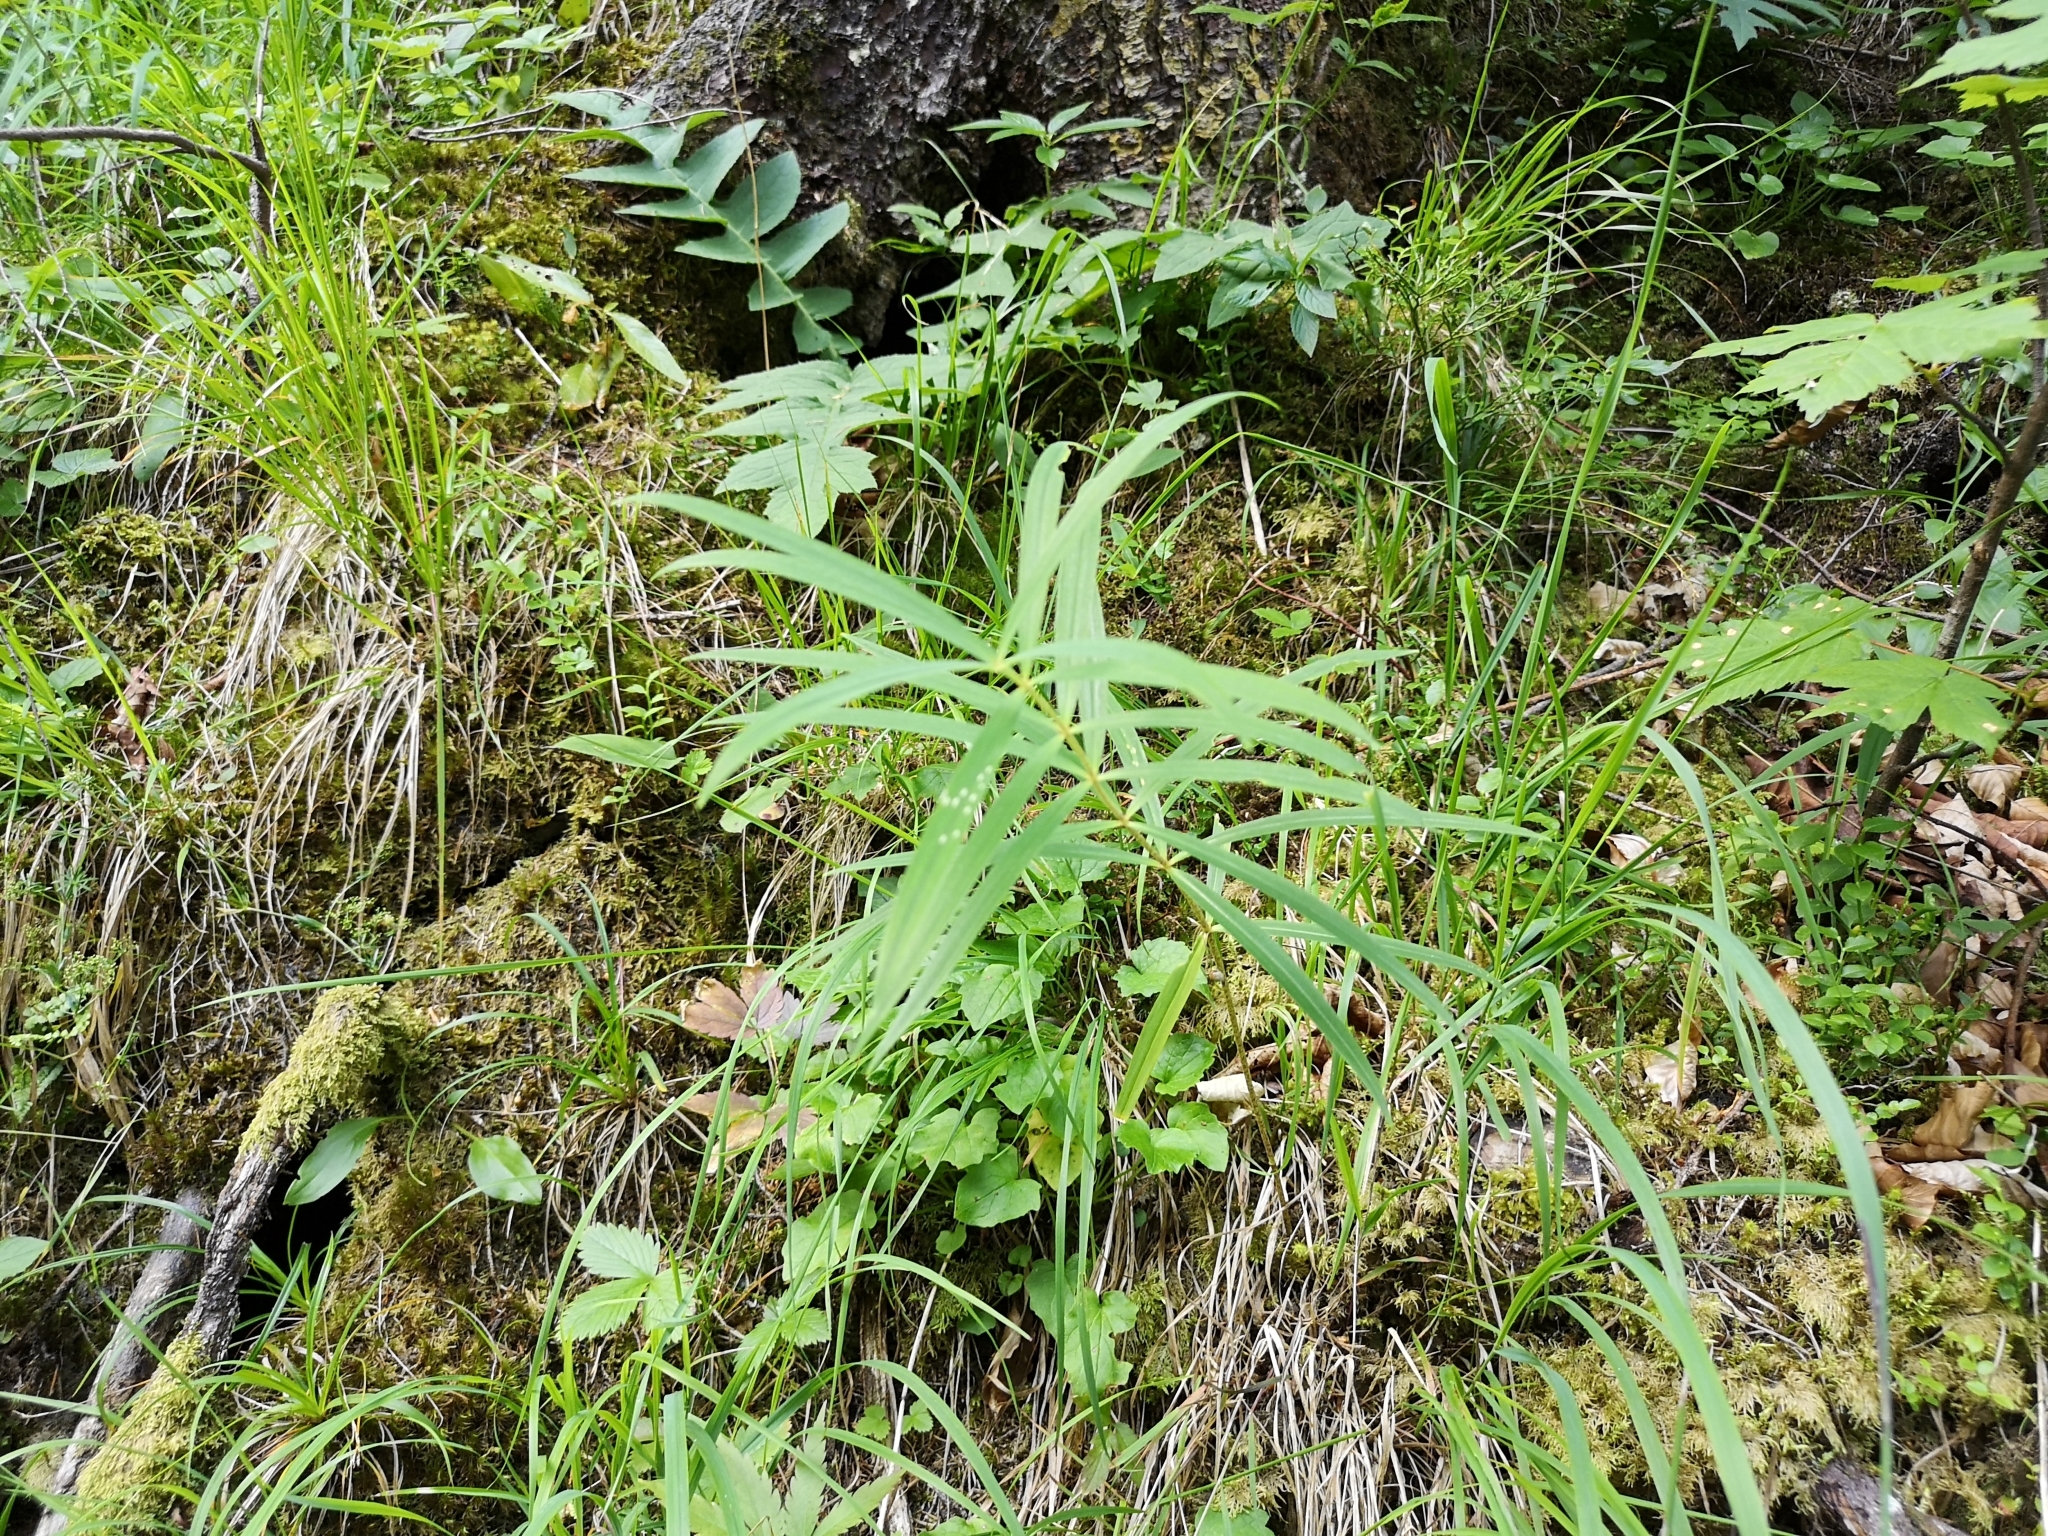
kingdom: Plantae
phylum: Tracheophyta
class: Liliopsida
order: Asparagales
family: Asparagaceae
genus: Polygonatum
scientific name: Polygonatum verticillatum
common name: Whorled solomon's-seal
